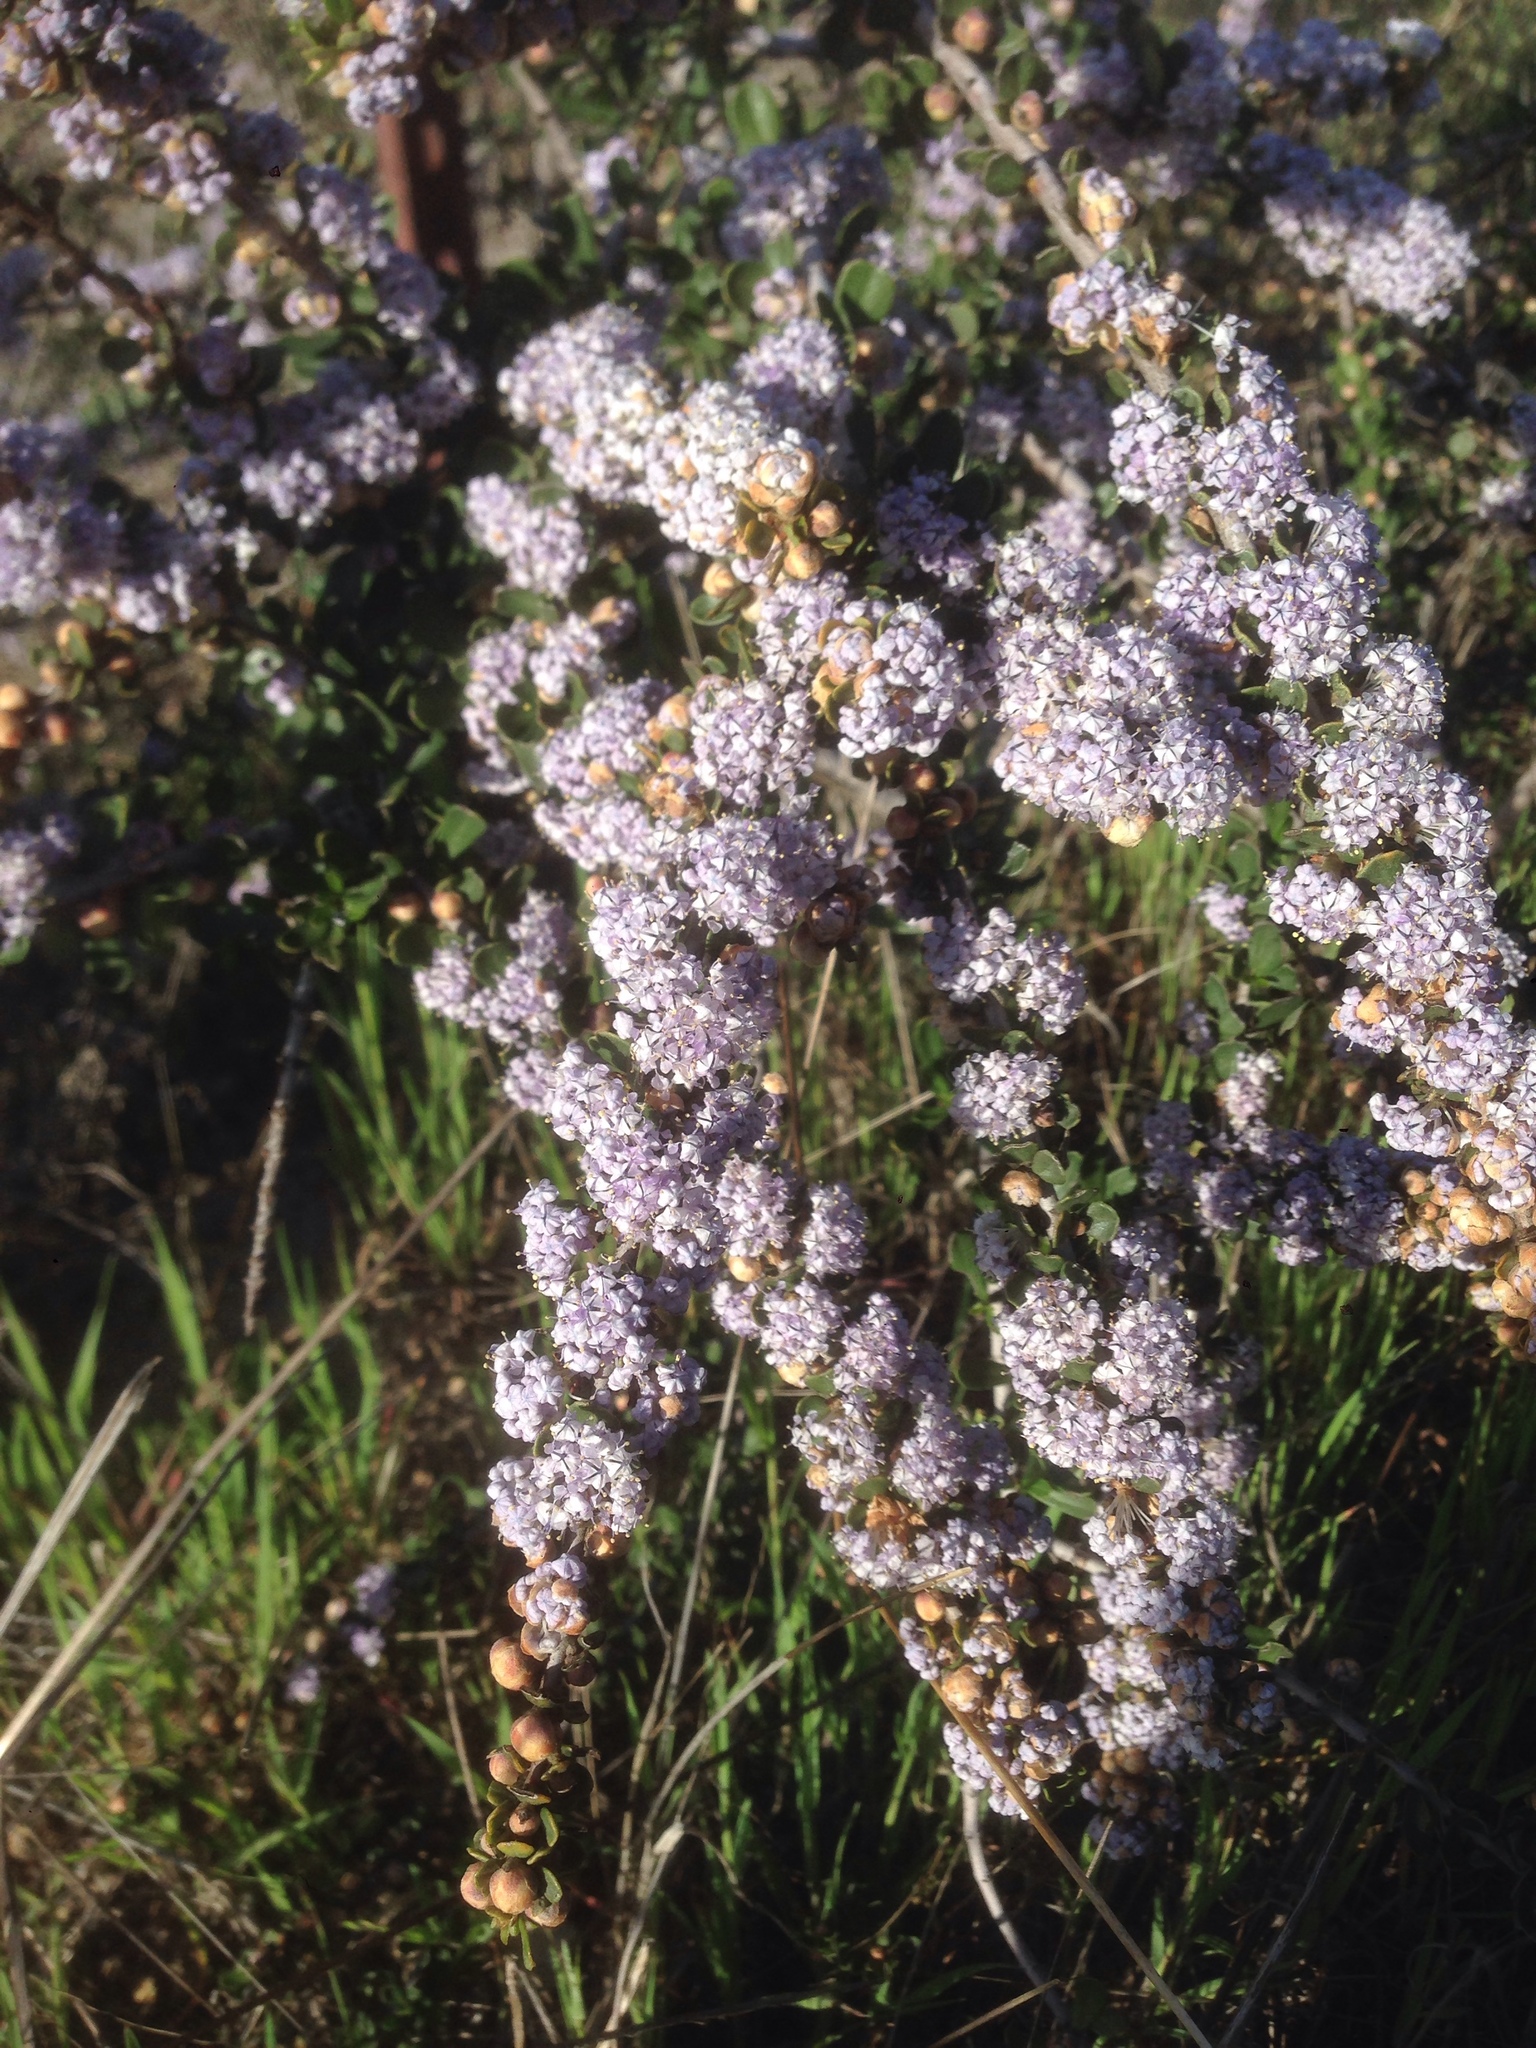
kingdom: Plantae
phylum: Tracheophyta
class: Magnoliopsida
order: Rosales
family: Rhamnaceae
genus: Ceanothus
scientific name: Ceanothus cuneatus
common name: Cuneate ceanothus
